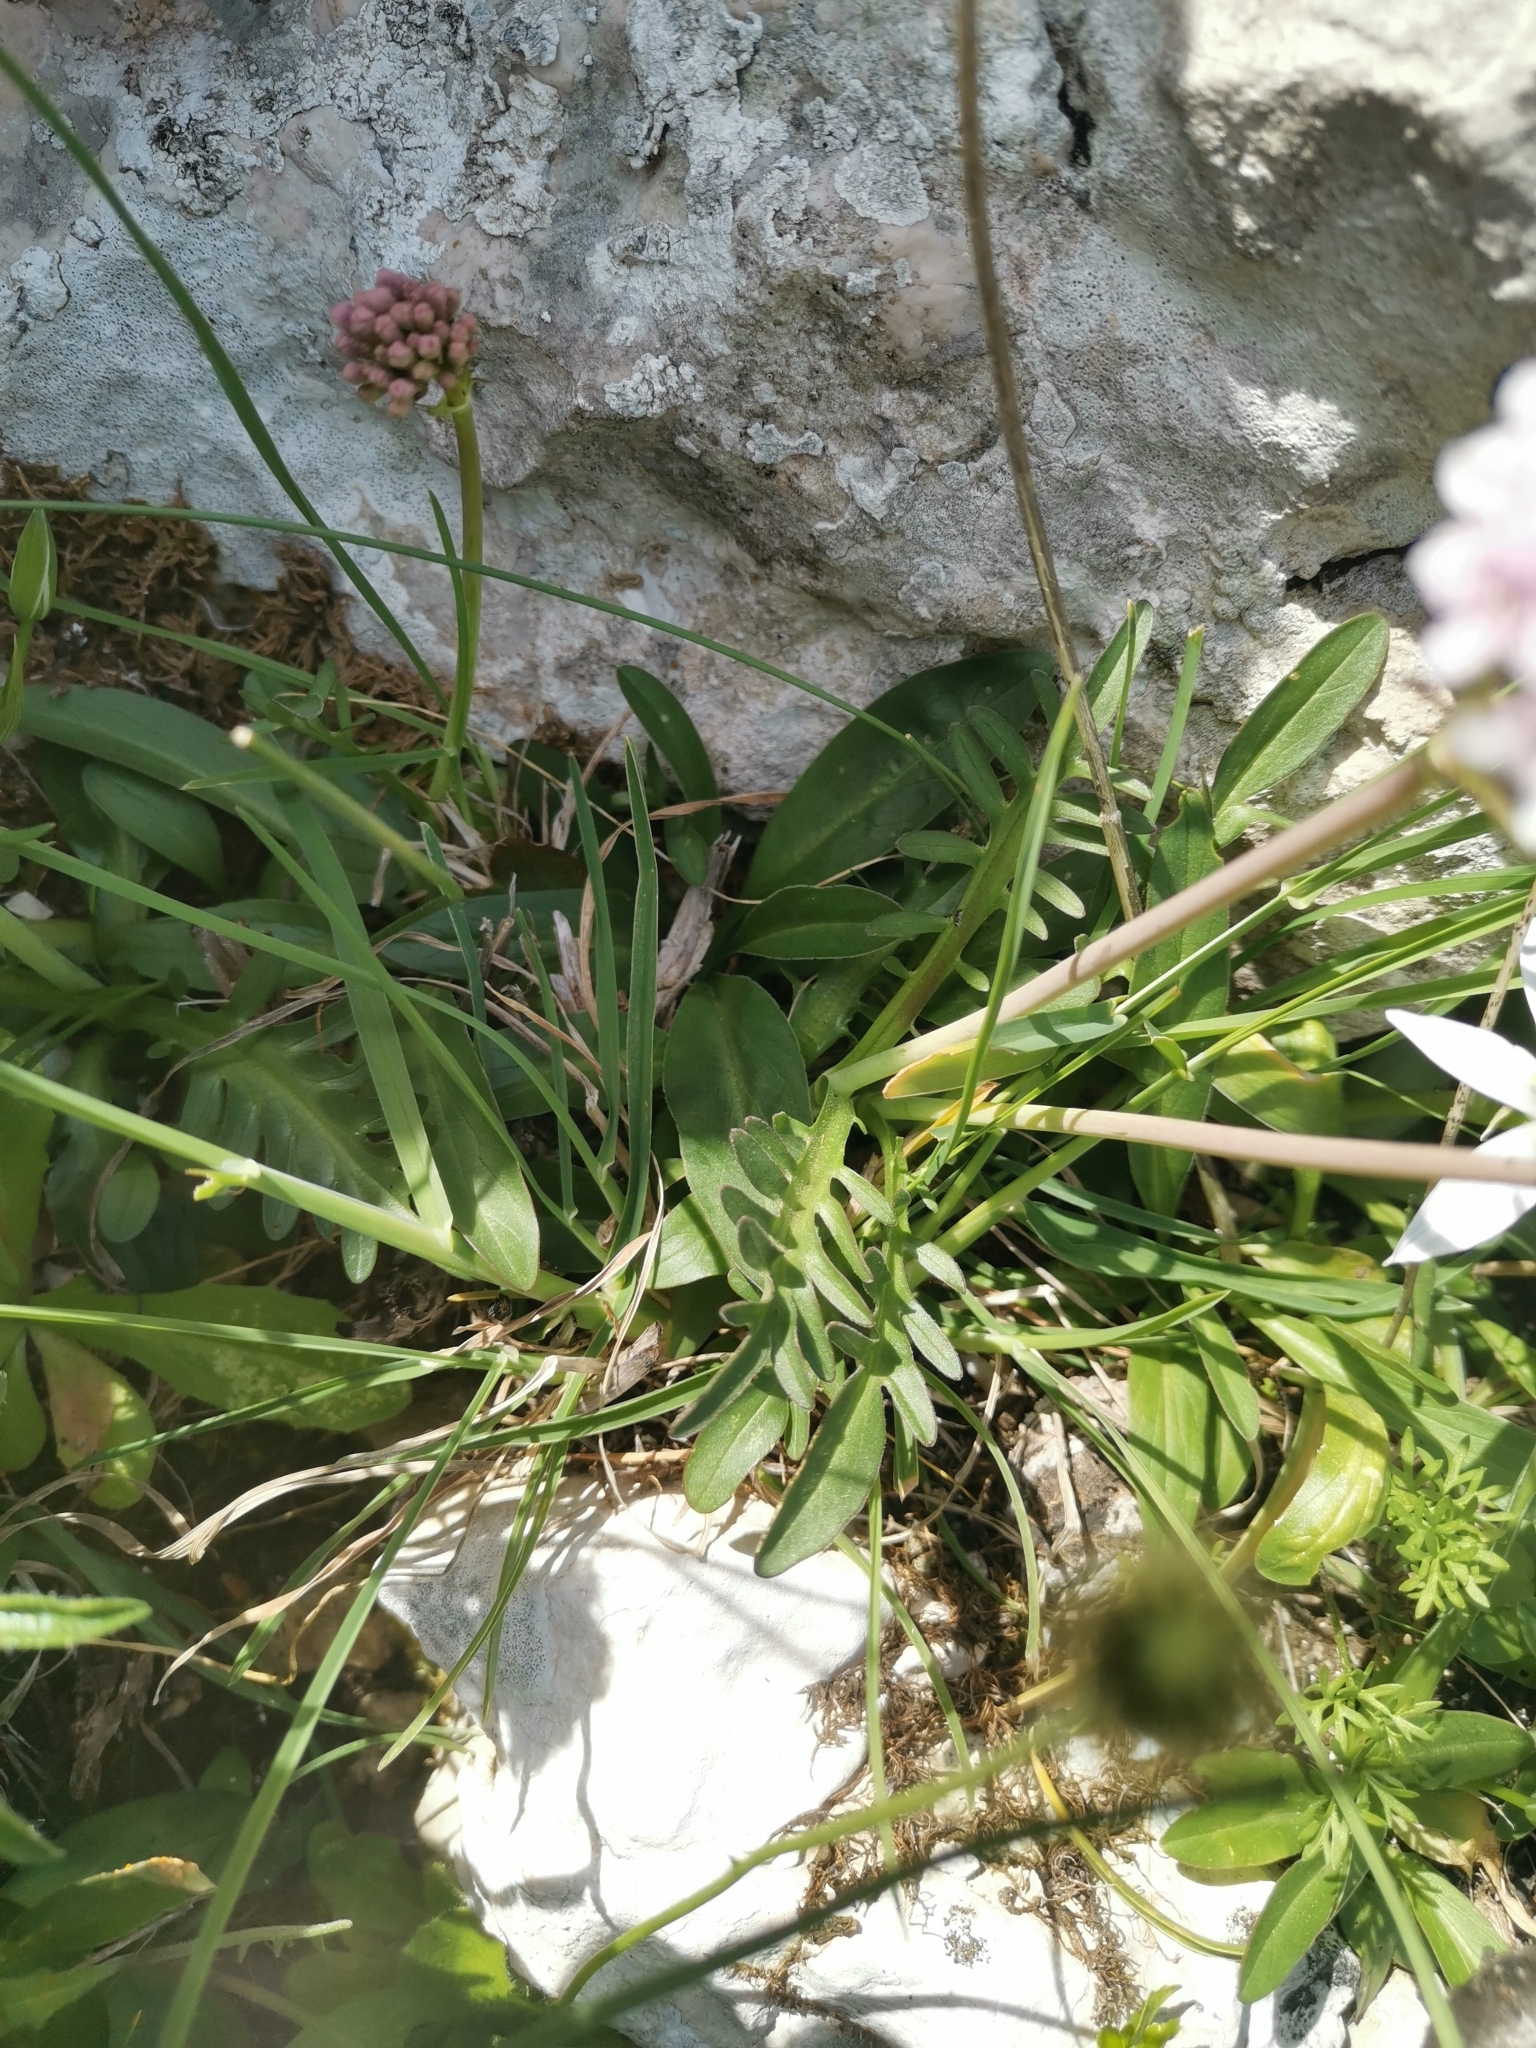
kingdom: Plantae
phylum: Tracheophyta
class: Magnoliopsida
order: Dipsacales
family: Caprifoliaceae
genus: Valeriana
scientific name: Valeriana tuberosa
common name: Tuberous valerian
